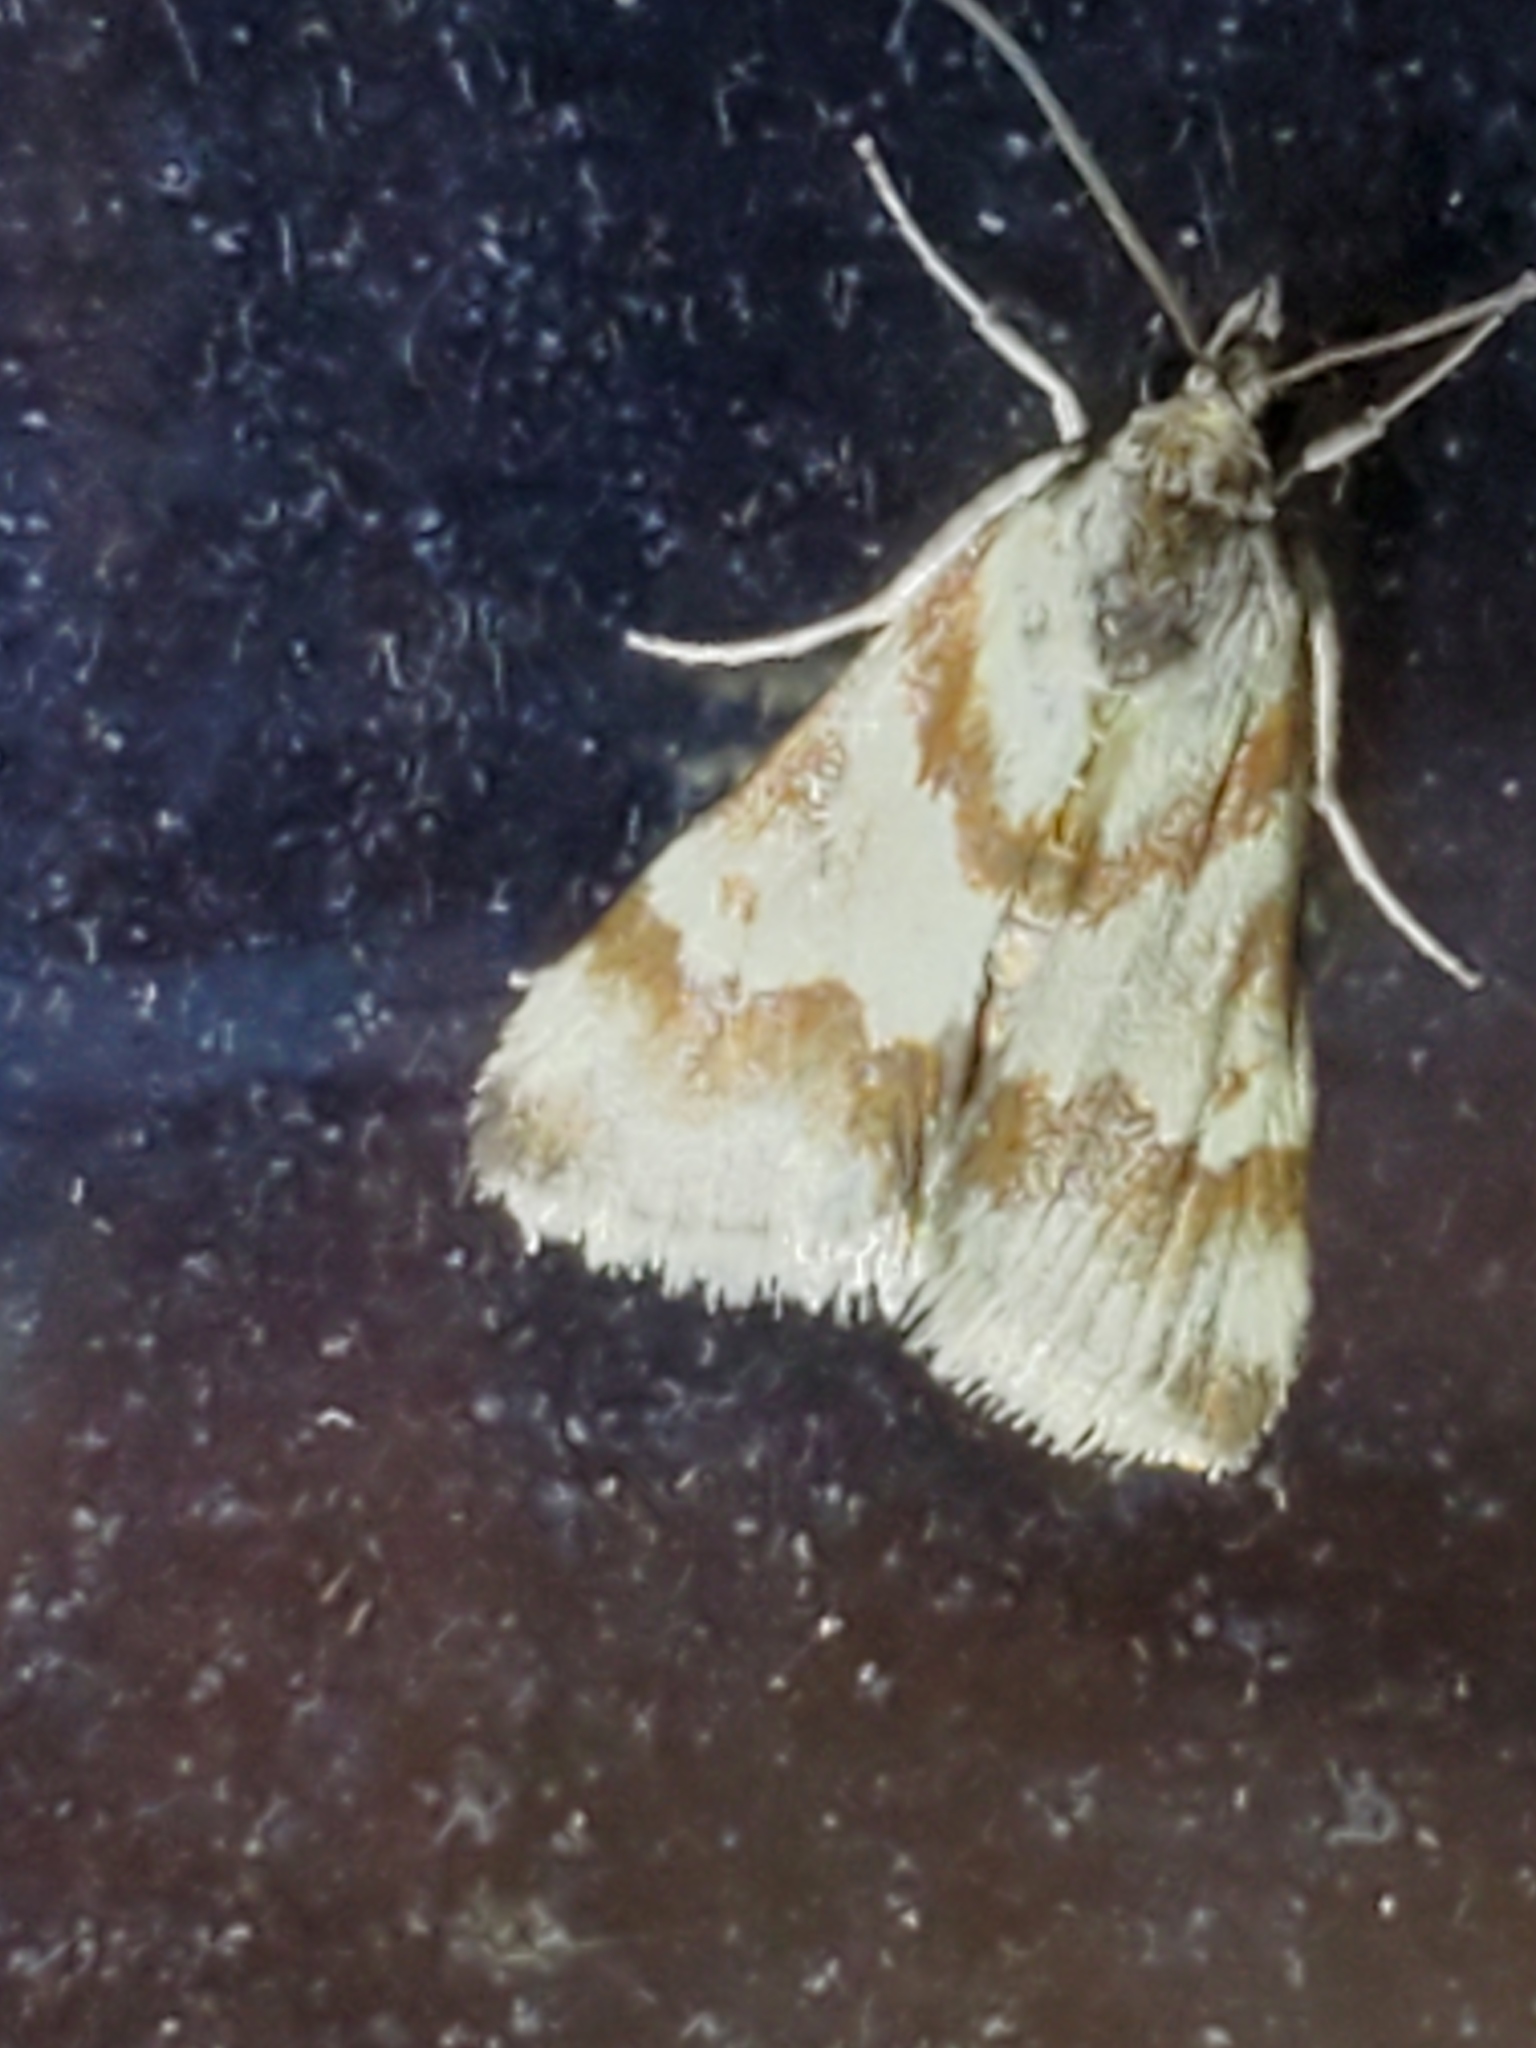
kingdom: Animalia
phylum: Arthropoda
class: Insecta
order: Lepidoptera
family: Crambidae
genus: Noctuelia
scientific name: Noctuelia Mimoschinia rufofascialis
